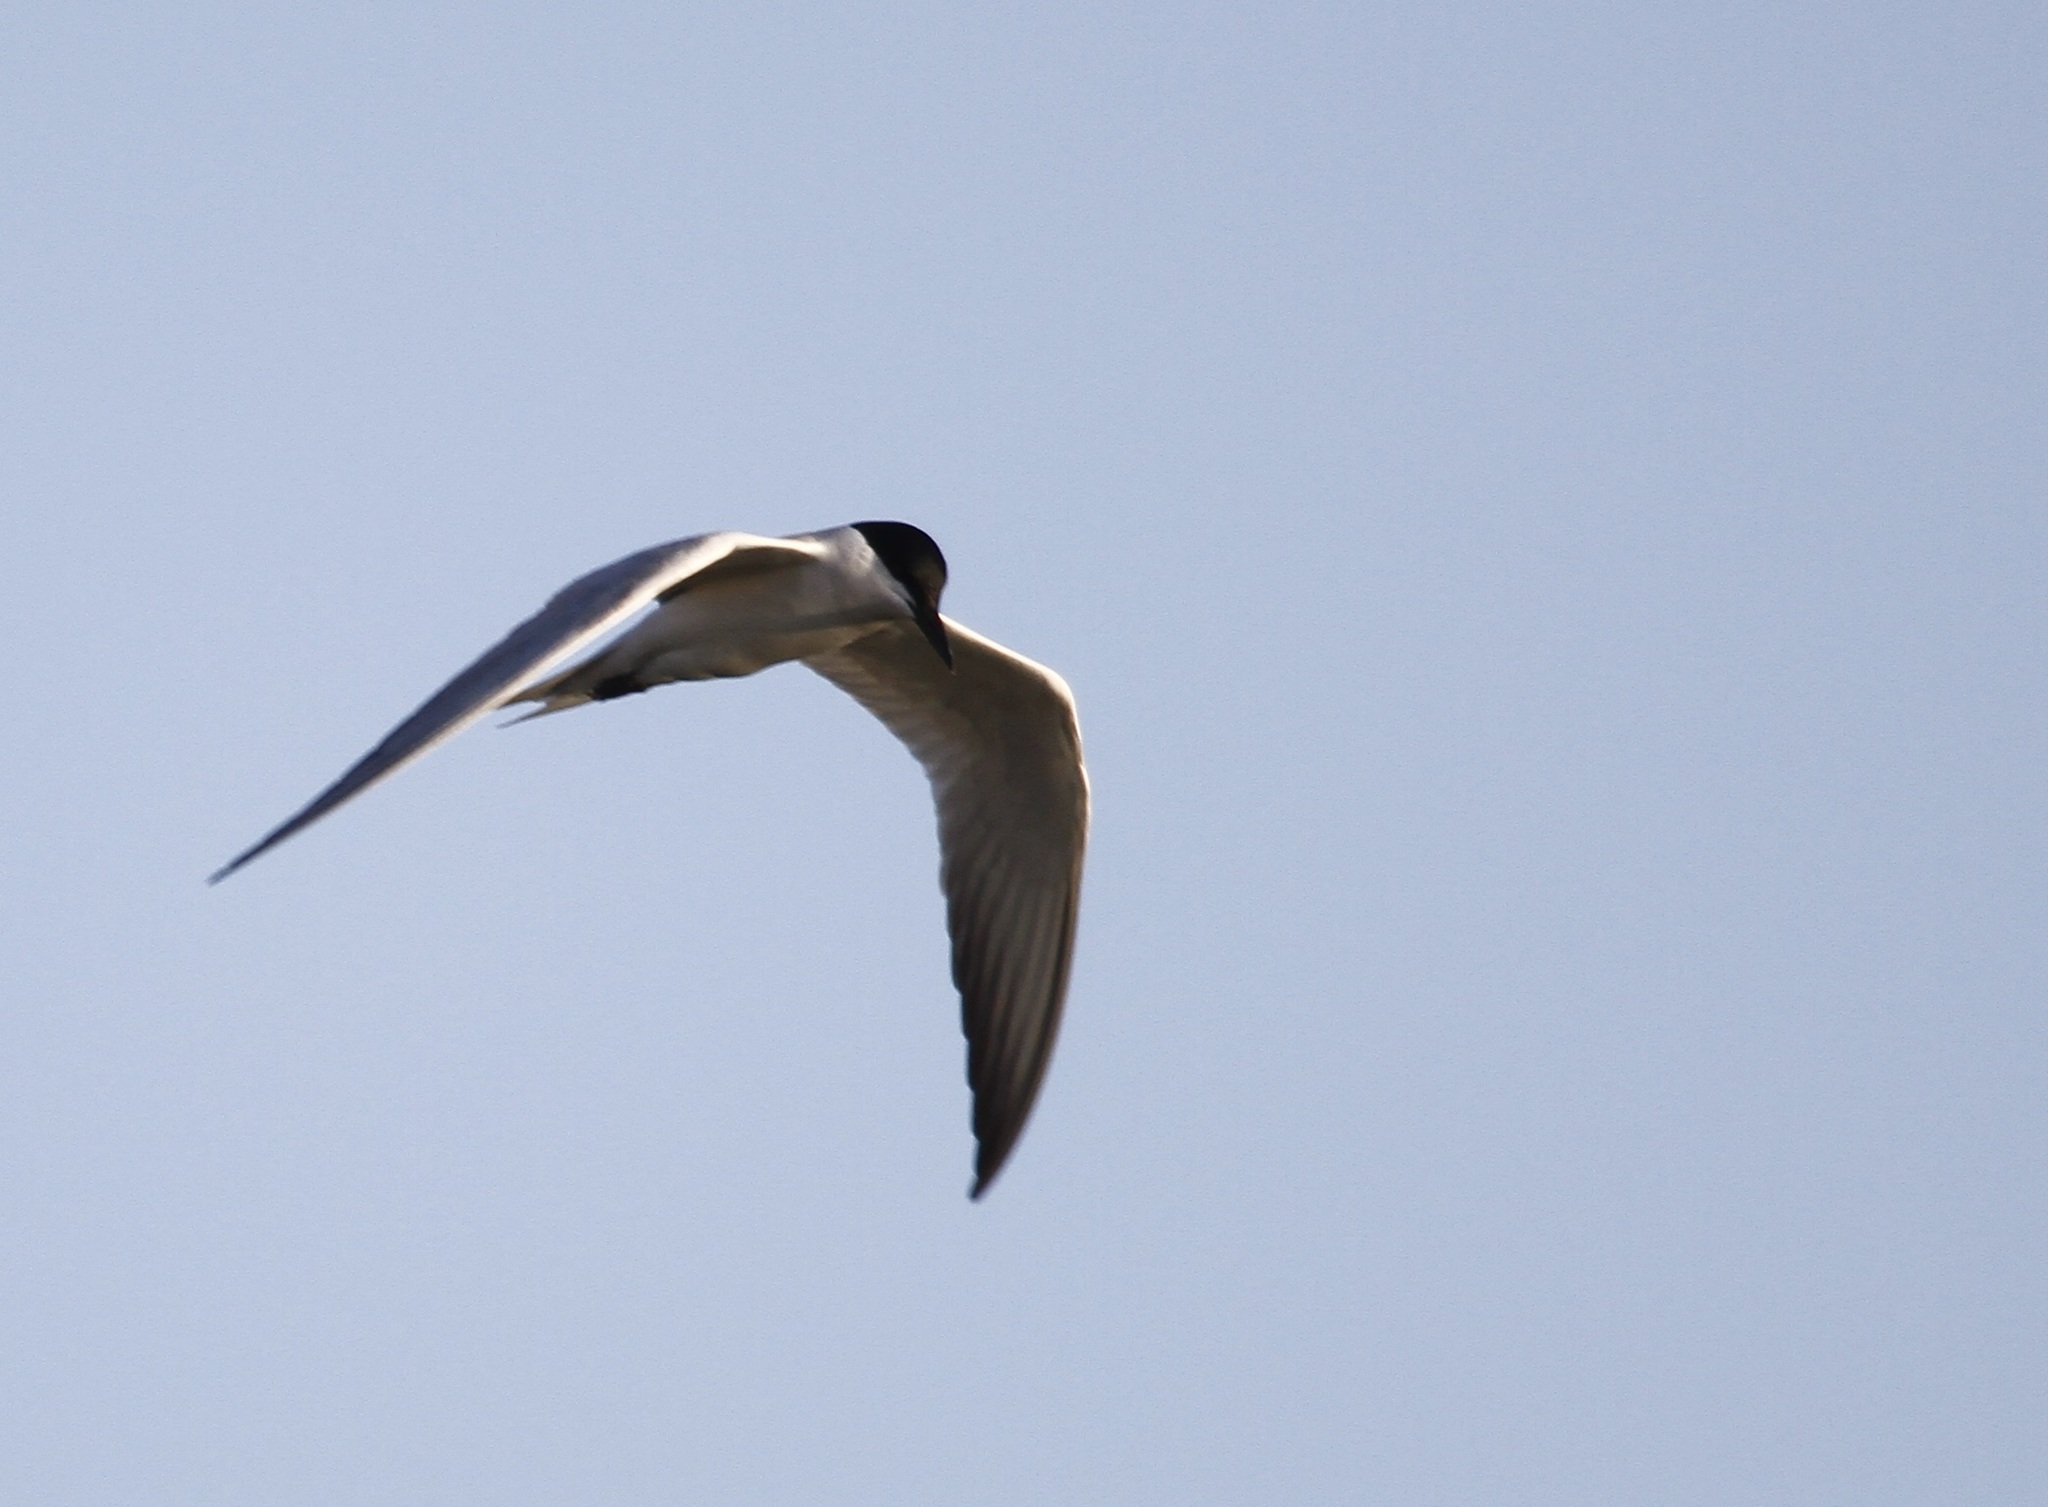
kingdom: Animalia
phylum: Chordata
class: Aves
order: Charadriiformes
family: Laridae
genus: Gelochelidon
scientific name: Gelochelidon nilotica
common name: Gull-billed tern
